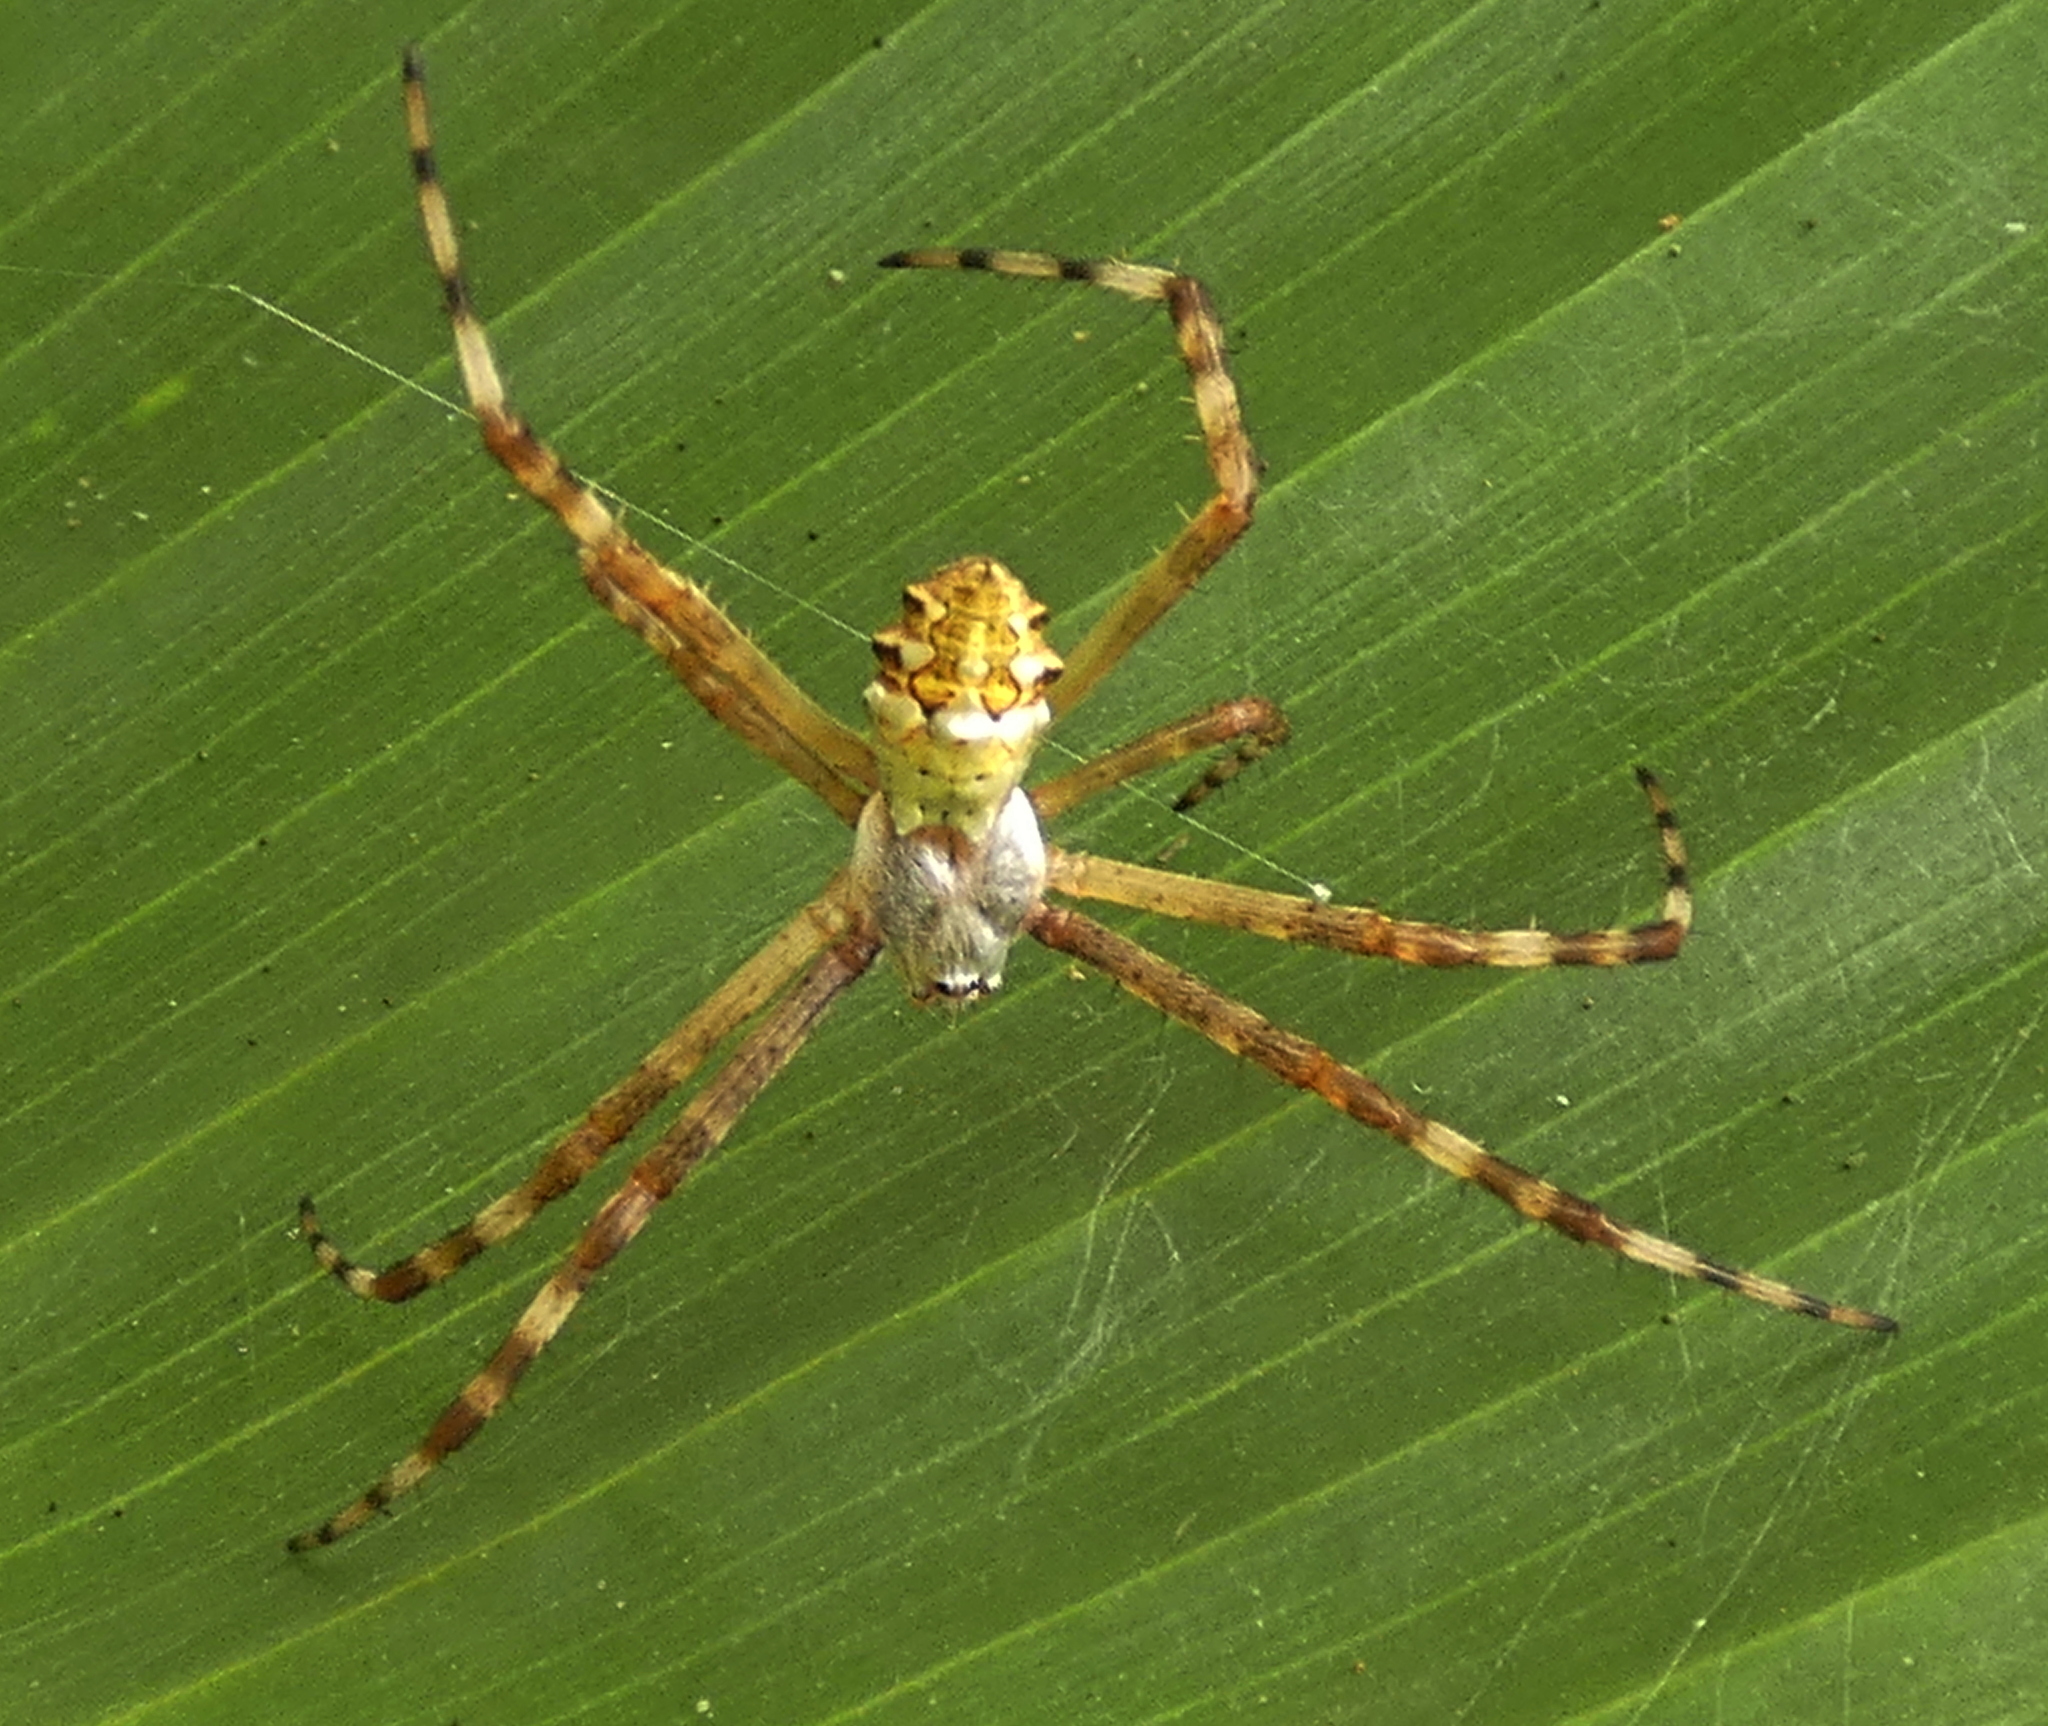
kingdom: Animalia
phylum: Arthropoda
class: Arachnida
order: Araneae
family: Araneidae
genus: Argiope
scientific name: Argiope argentata
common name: Orb weavers
